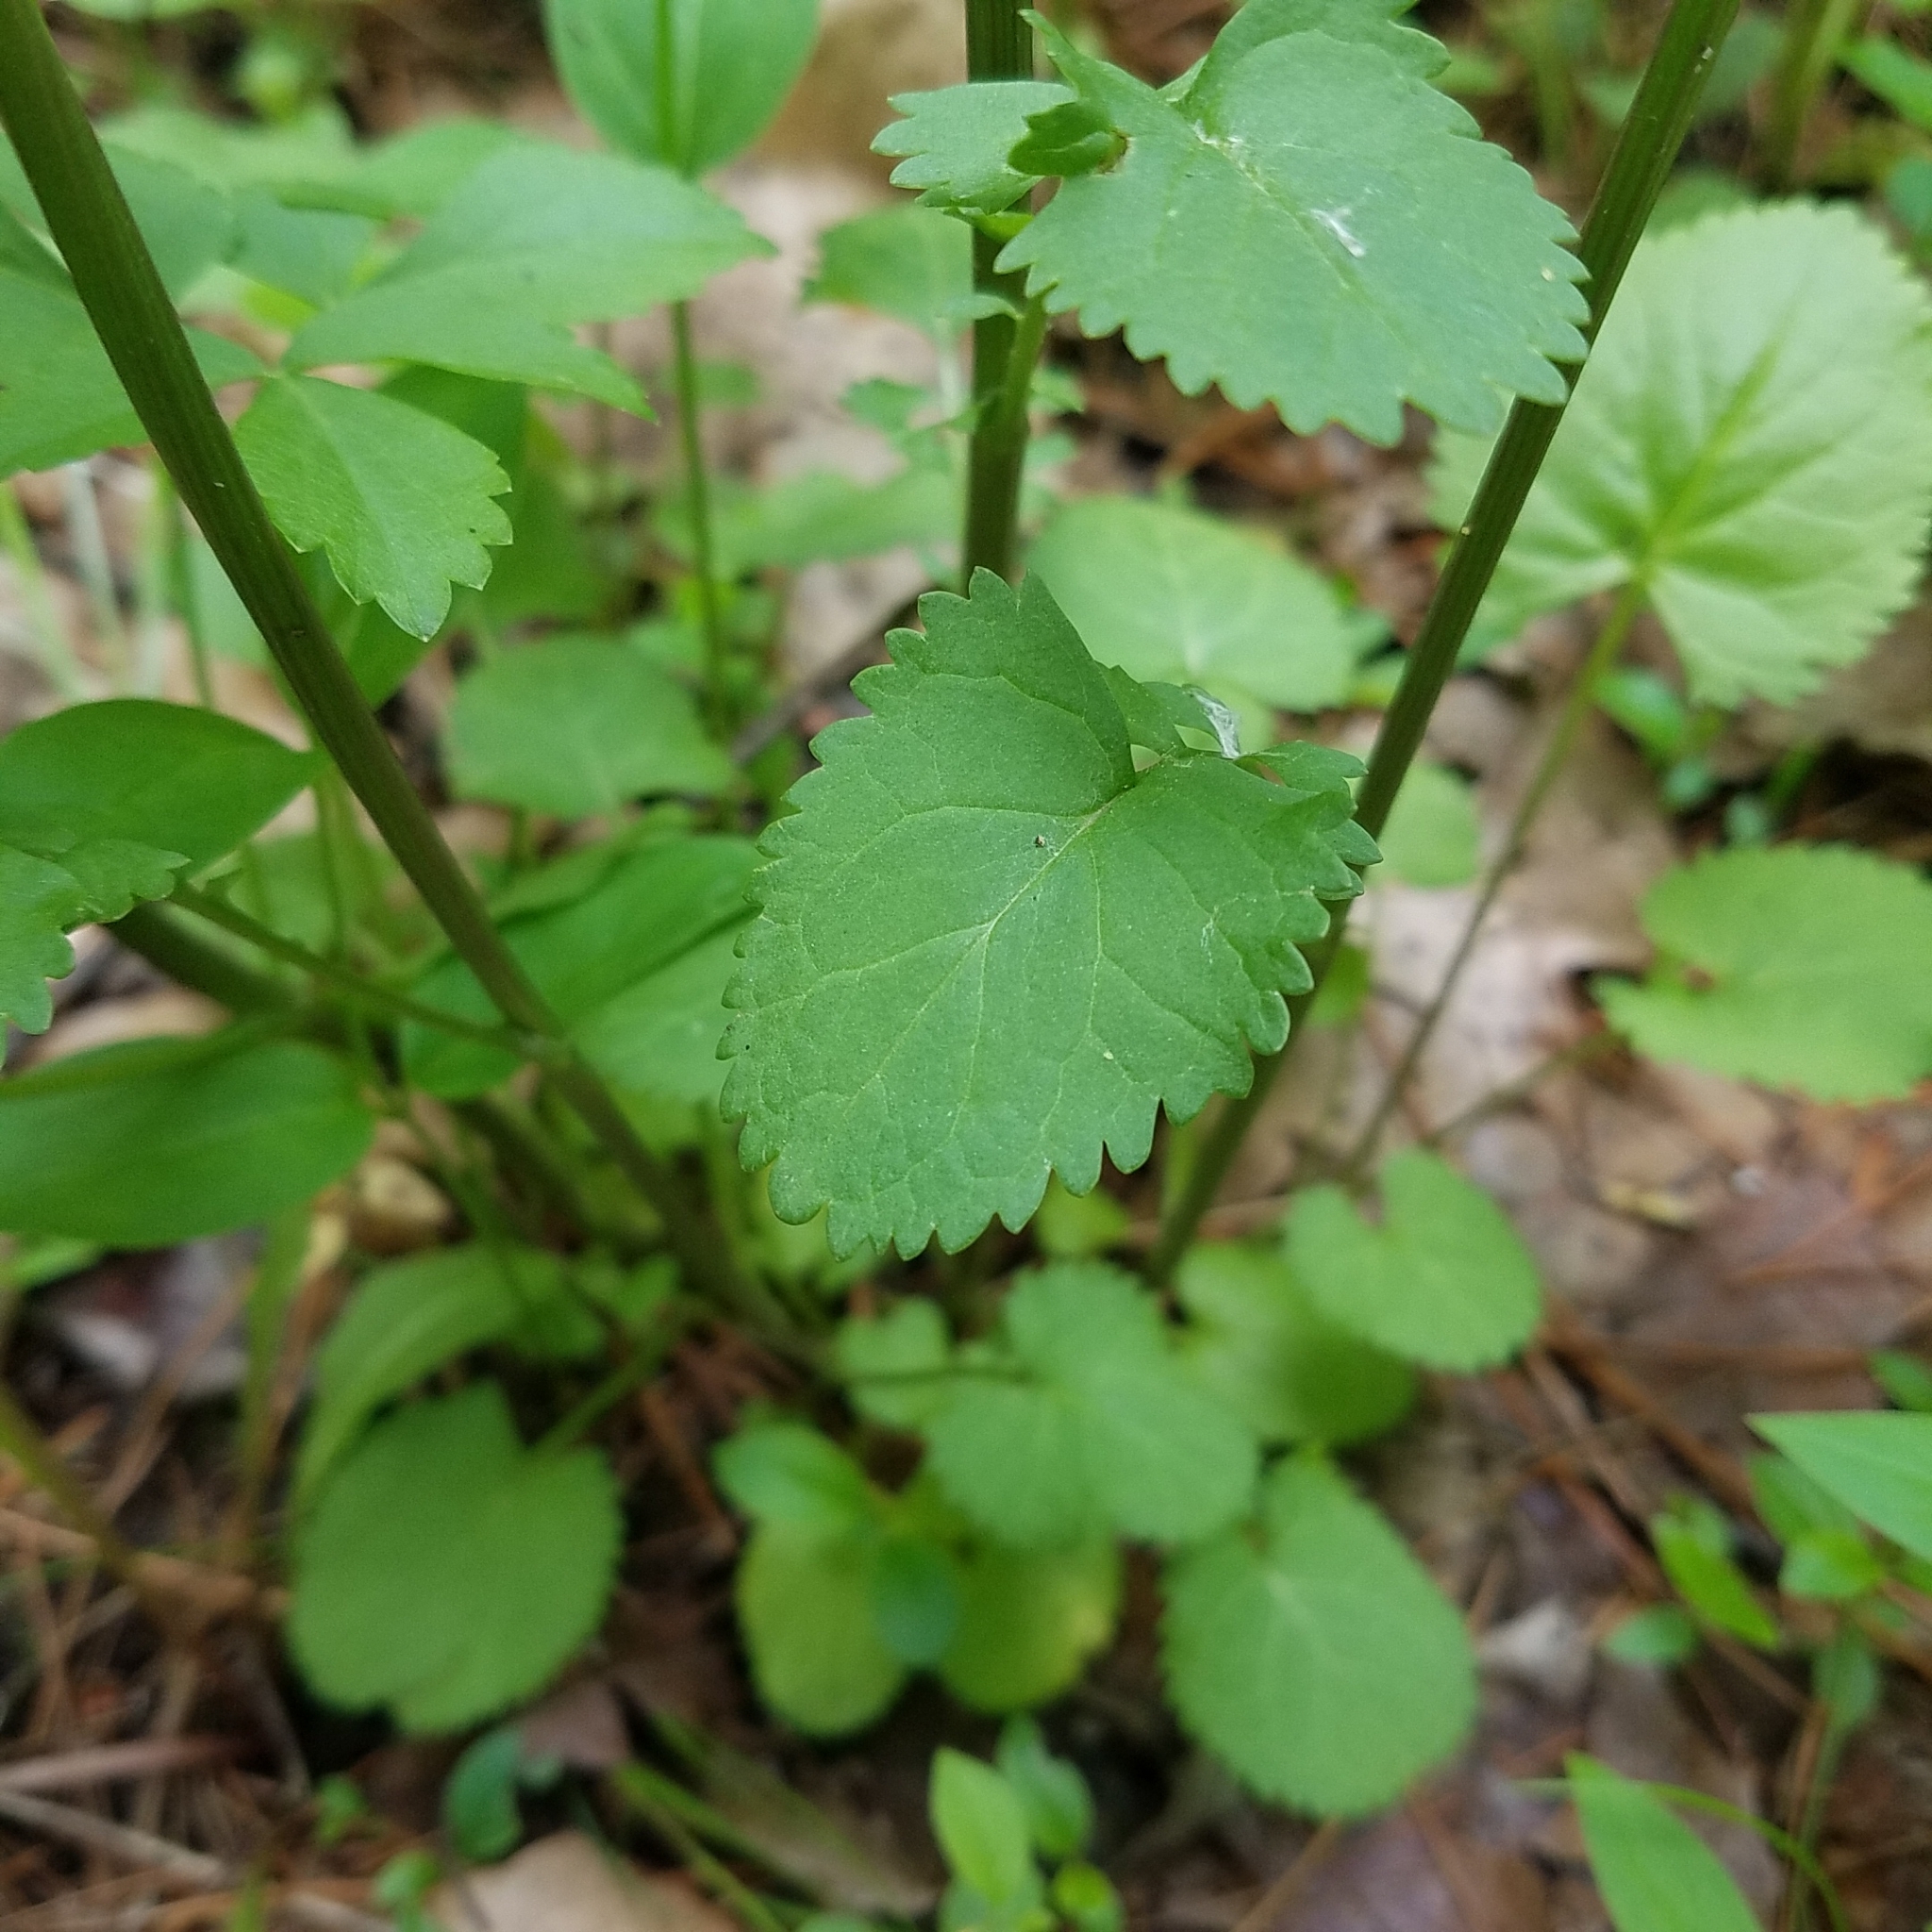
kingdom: Plantae
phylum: Tracheophyta
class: Magnoliopsida
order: Asterales
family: Asteraceae
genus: Packera
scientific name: Packera aurea
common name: Golden groundsel
